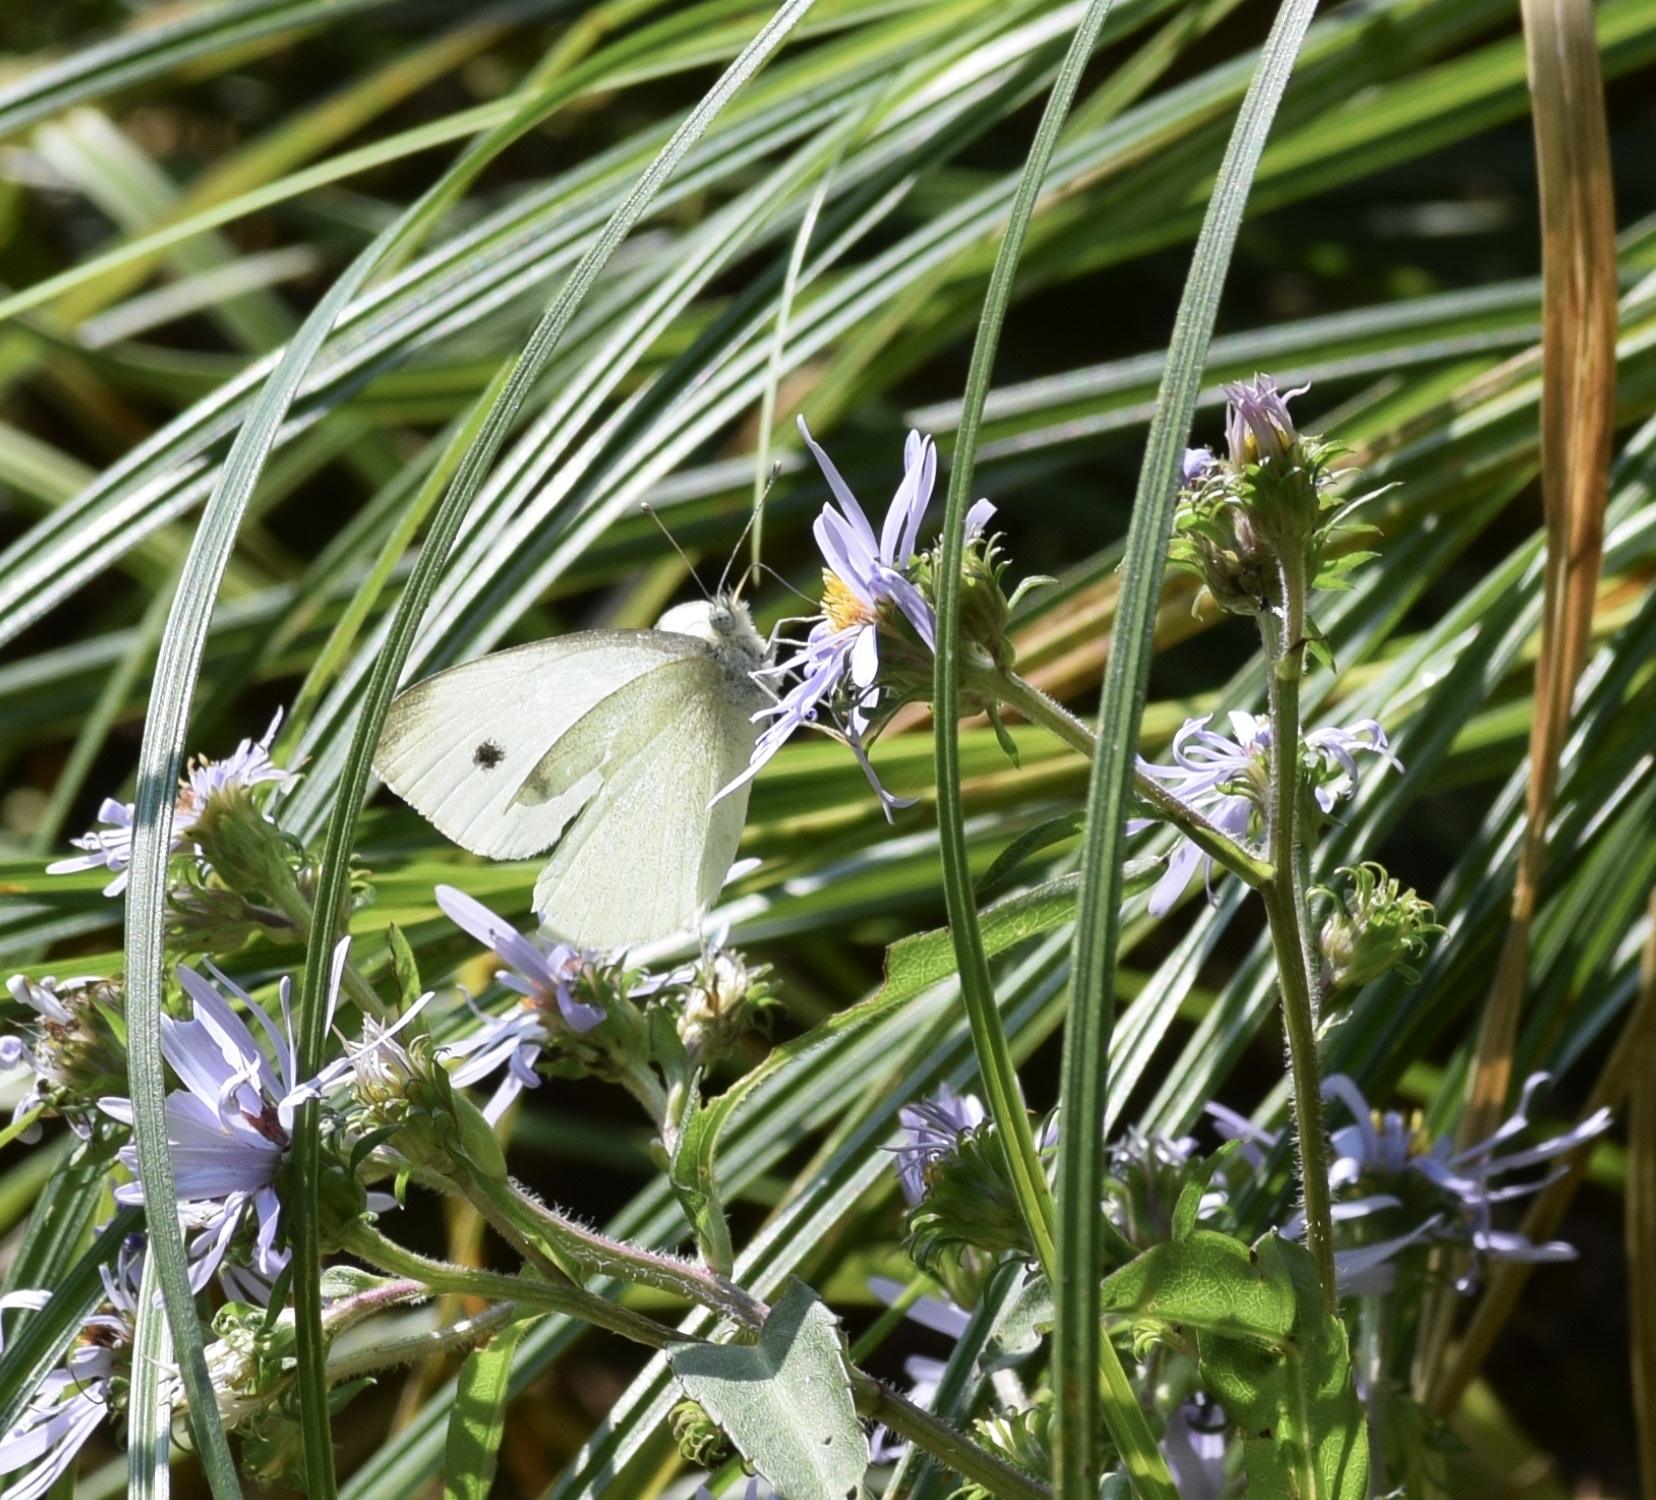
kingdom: Animalia
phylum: Arthropoda
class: Insecta
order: Lepidoptera
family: Pieridae
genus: Pieris
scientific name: Pieris rapae
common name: Small white
